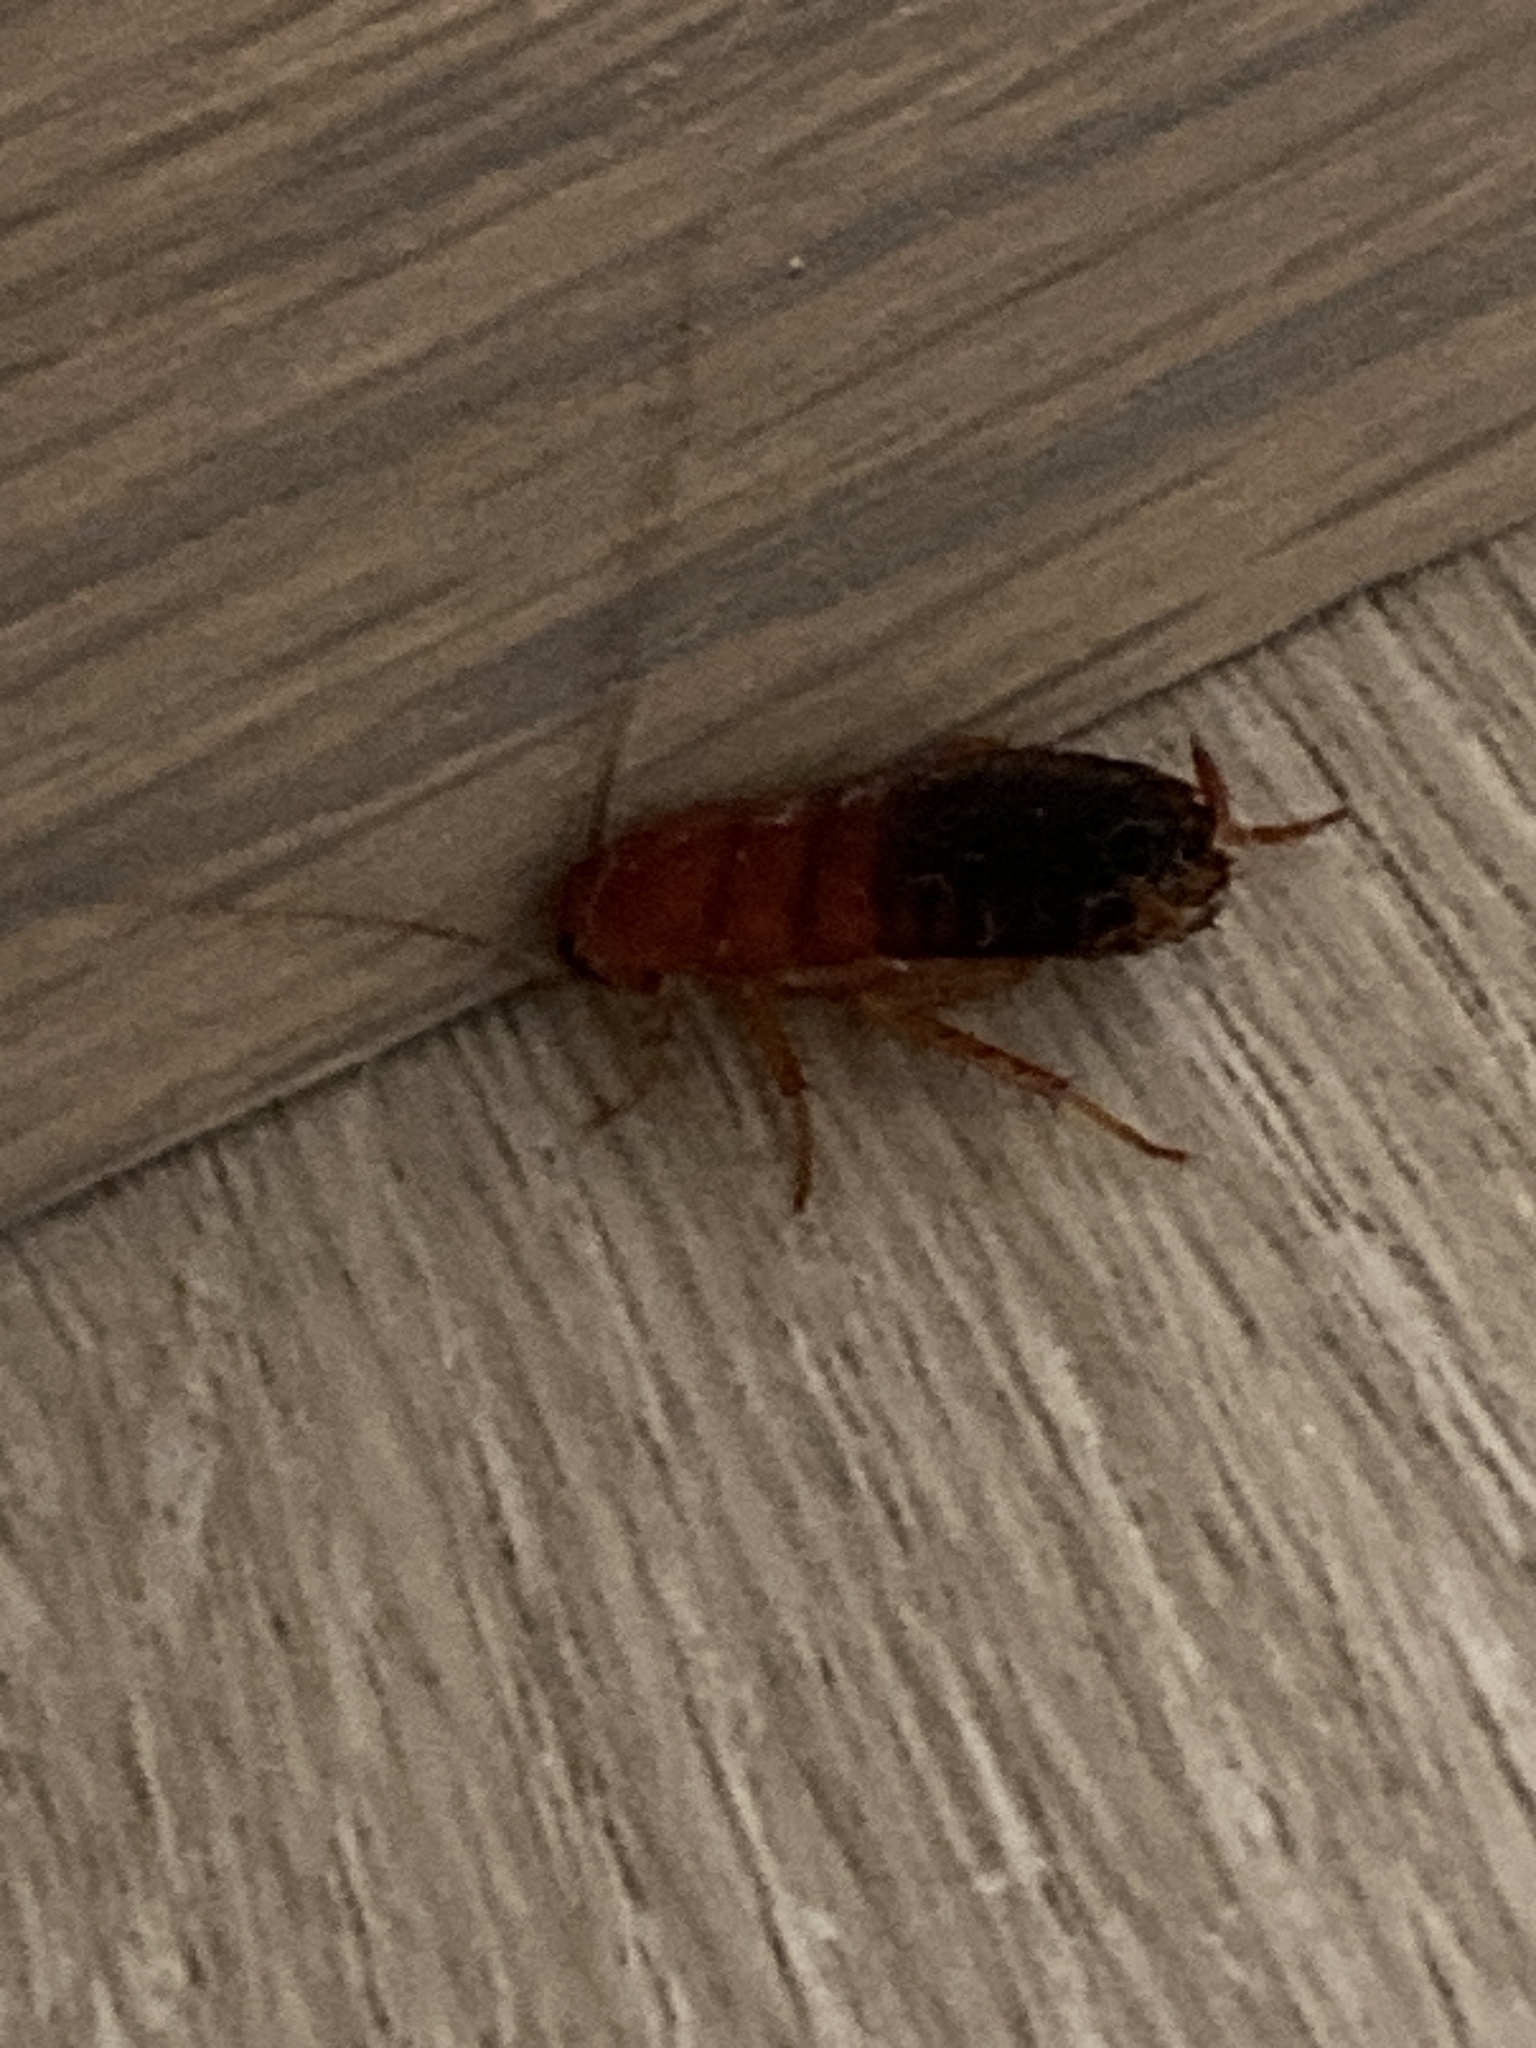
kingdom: Animalia
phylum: Arthropoda
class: Insecta
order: Blattodea
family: Blattidae
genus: Periplaneta
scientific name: Periplaneta lateralis
